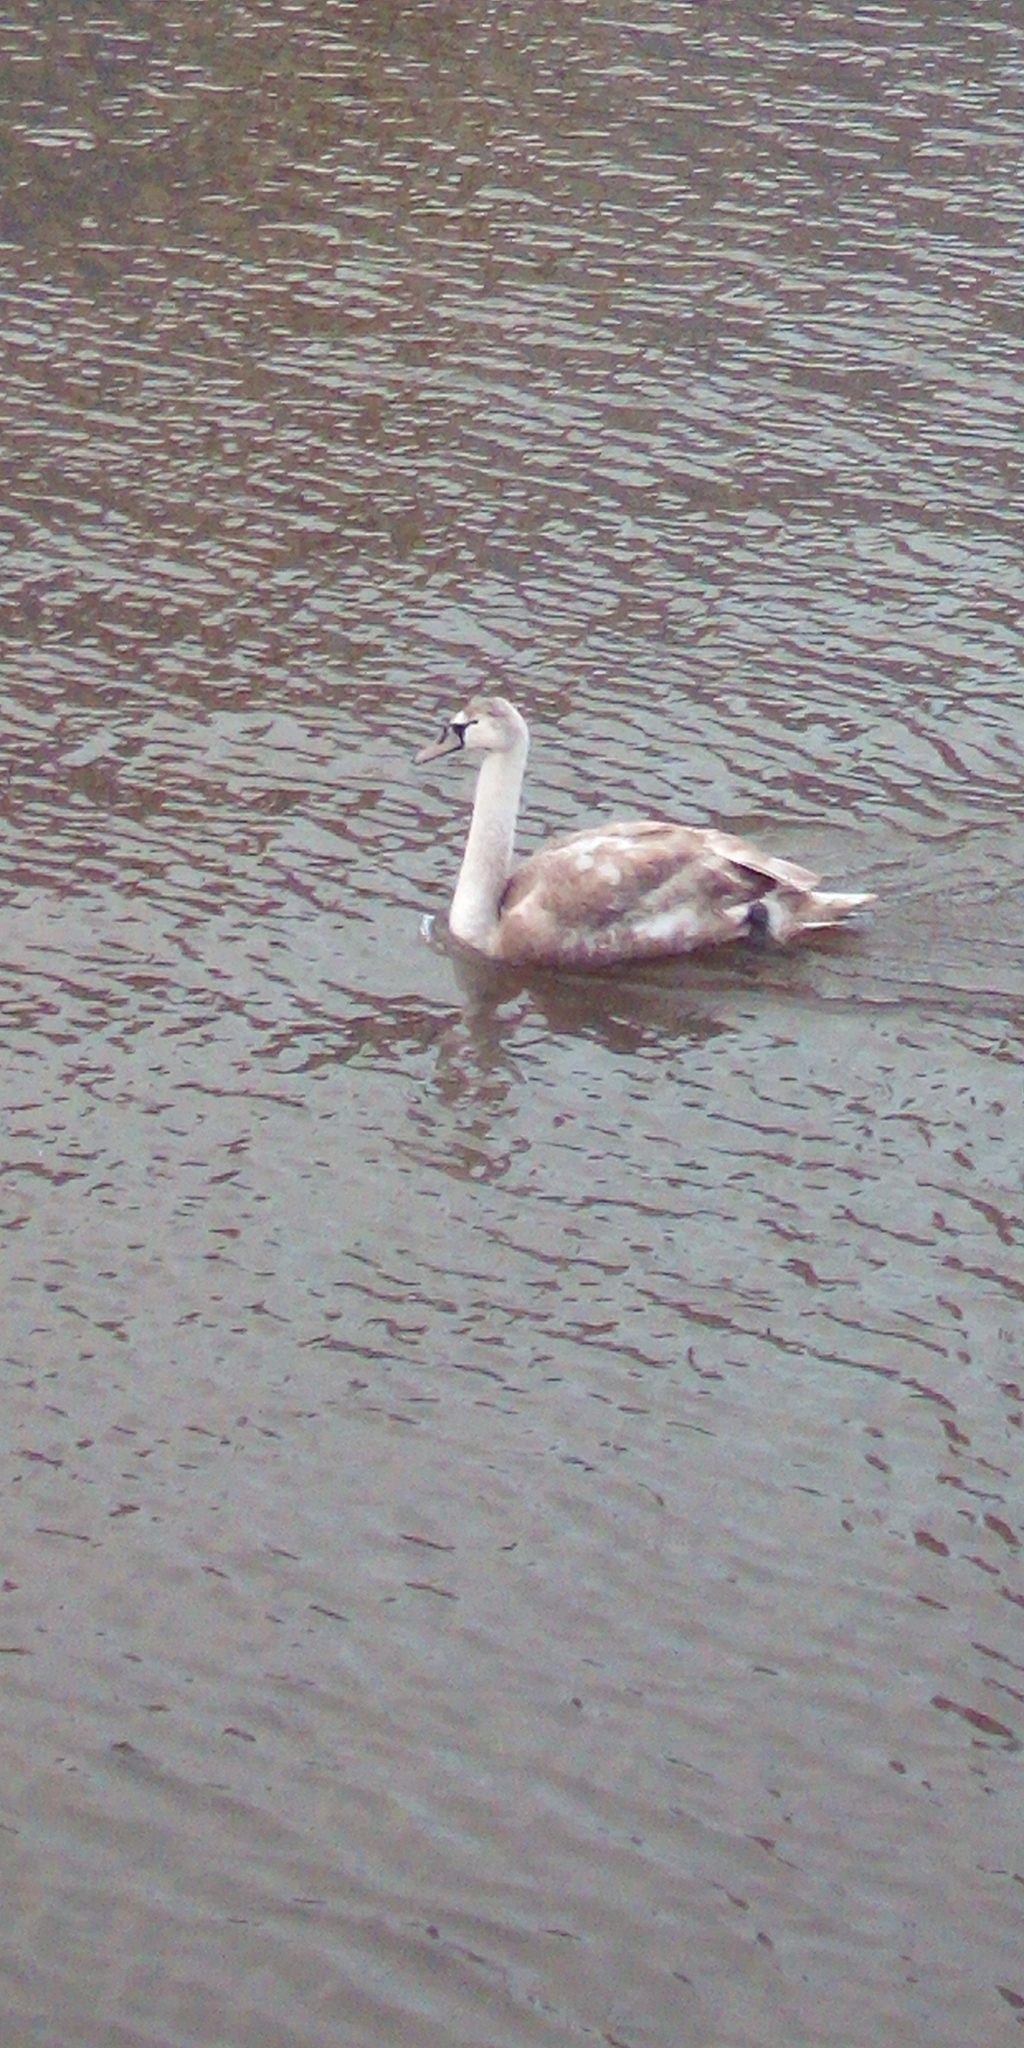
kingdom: Animalia
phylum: Chordata
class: Aves
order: Anseriformes
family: Anatidae
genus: Cygnus
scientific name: Cygnus olor
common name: Mute swan
